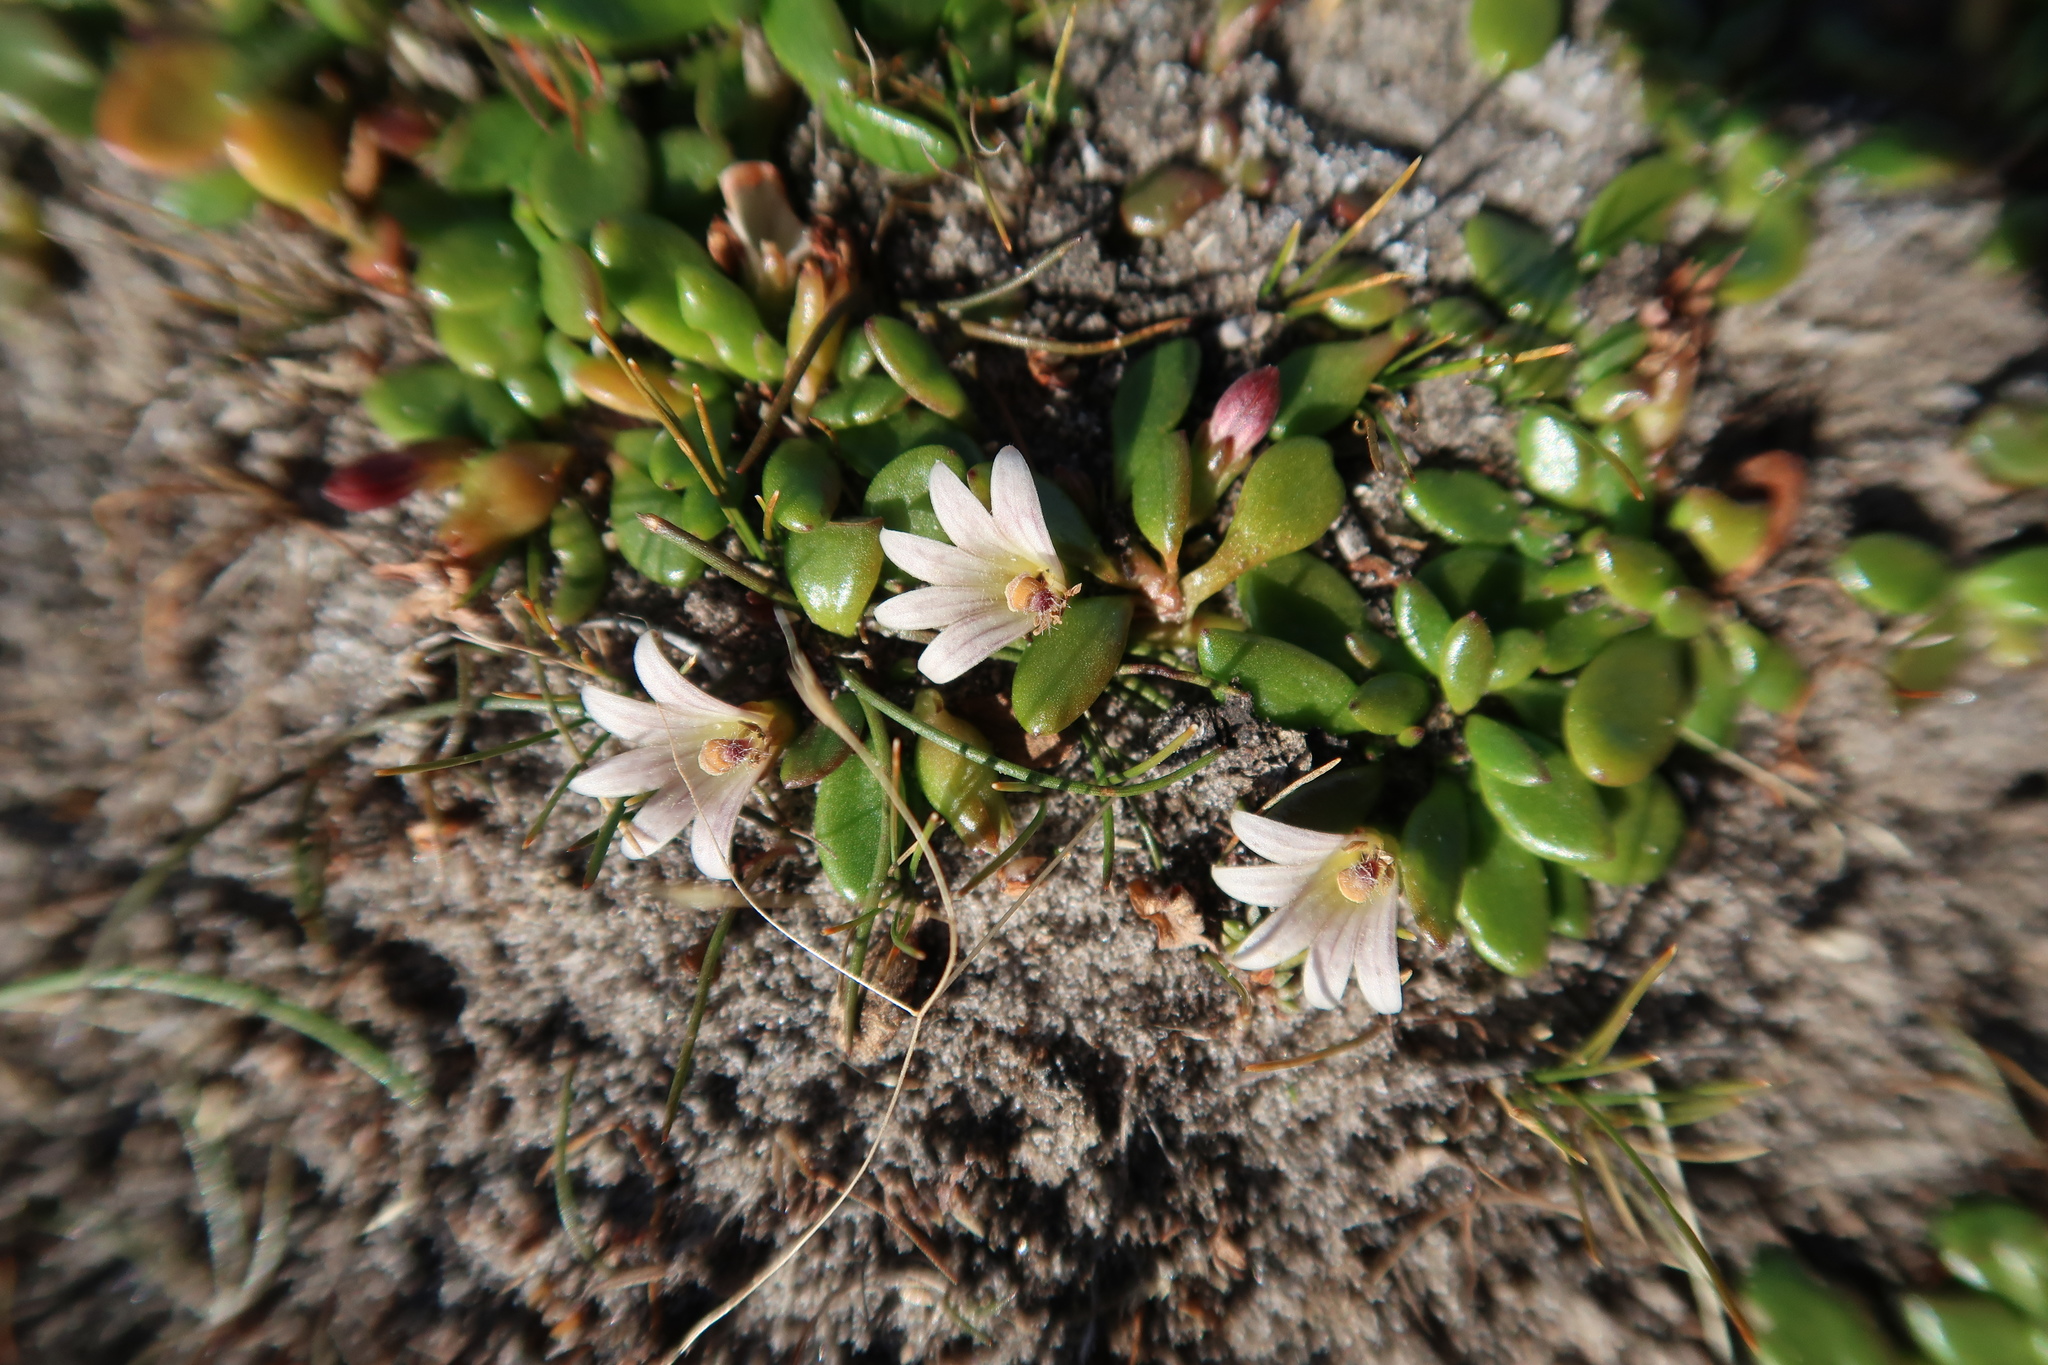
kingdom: Plantae
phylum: Tracheophyta
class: Magnoliopsida
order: Asterales
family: Goodeniaceae
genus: Goodenia
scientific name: Goodenia radicans
